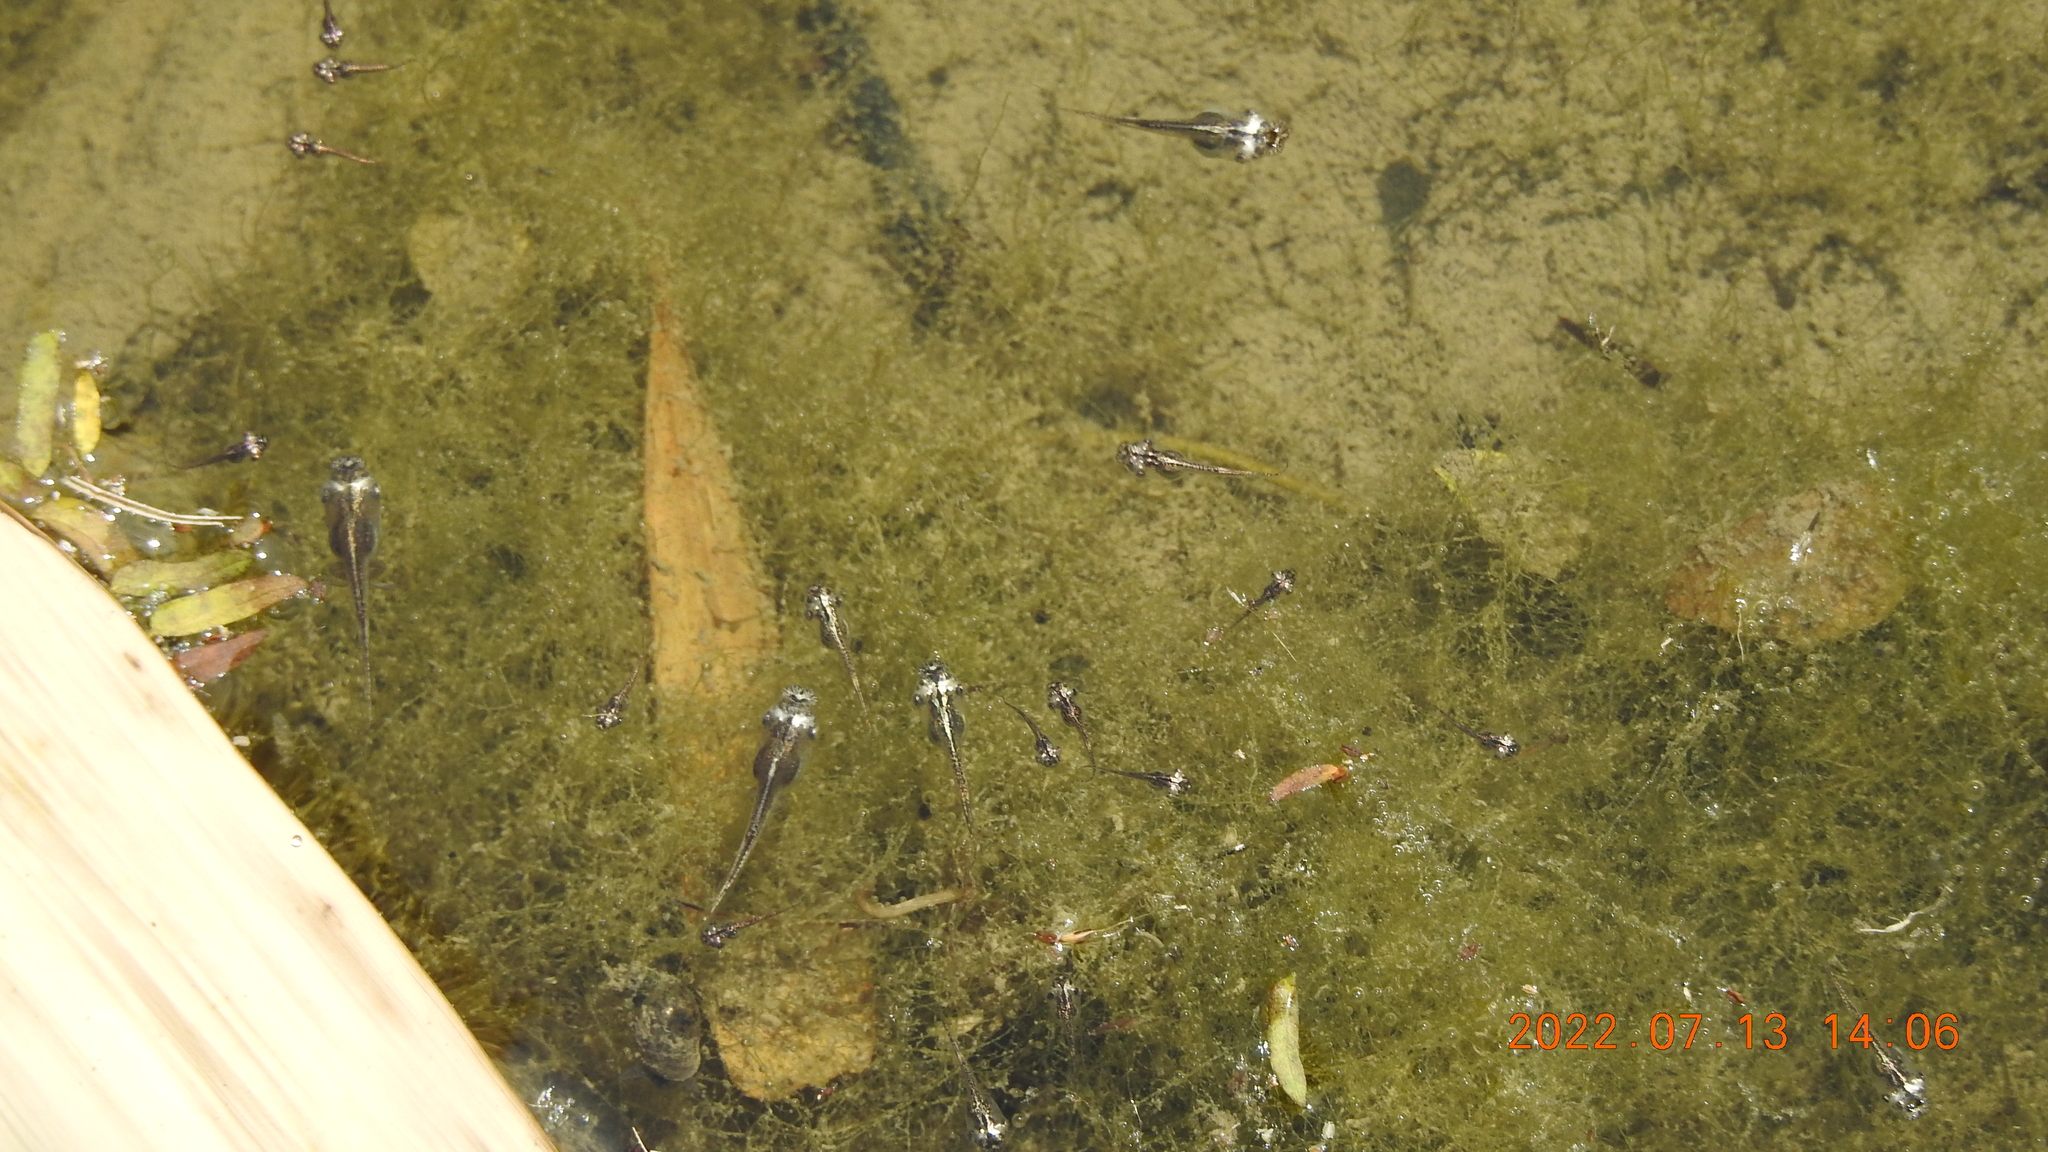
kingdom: Animalia
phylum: Chordata
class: Amphibia
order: Anura
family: Microhylidae
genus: Microhyla
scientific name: Microhyla heymonsi
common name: Taiwan rice frog,dark sided chorus frog
